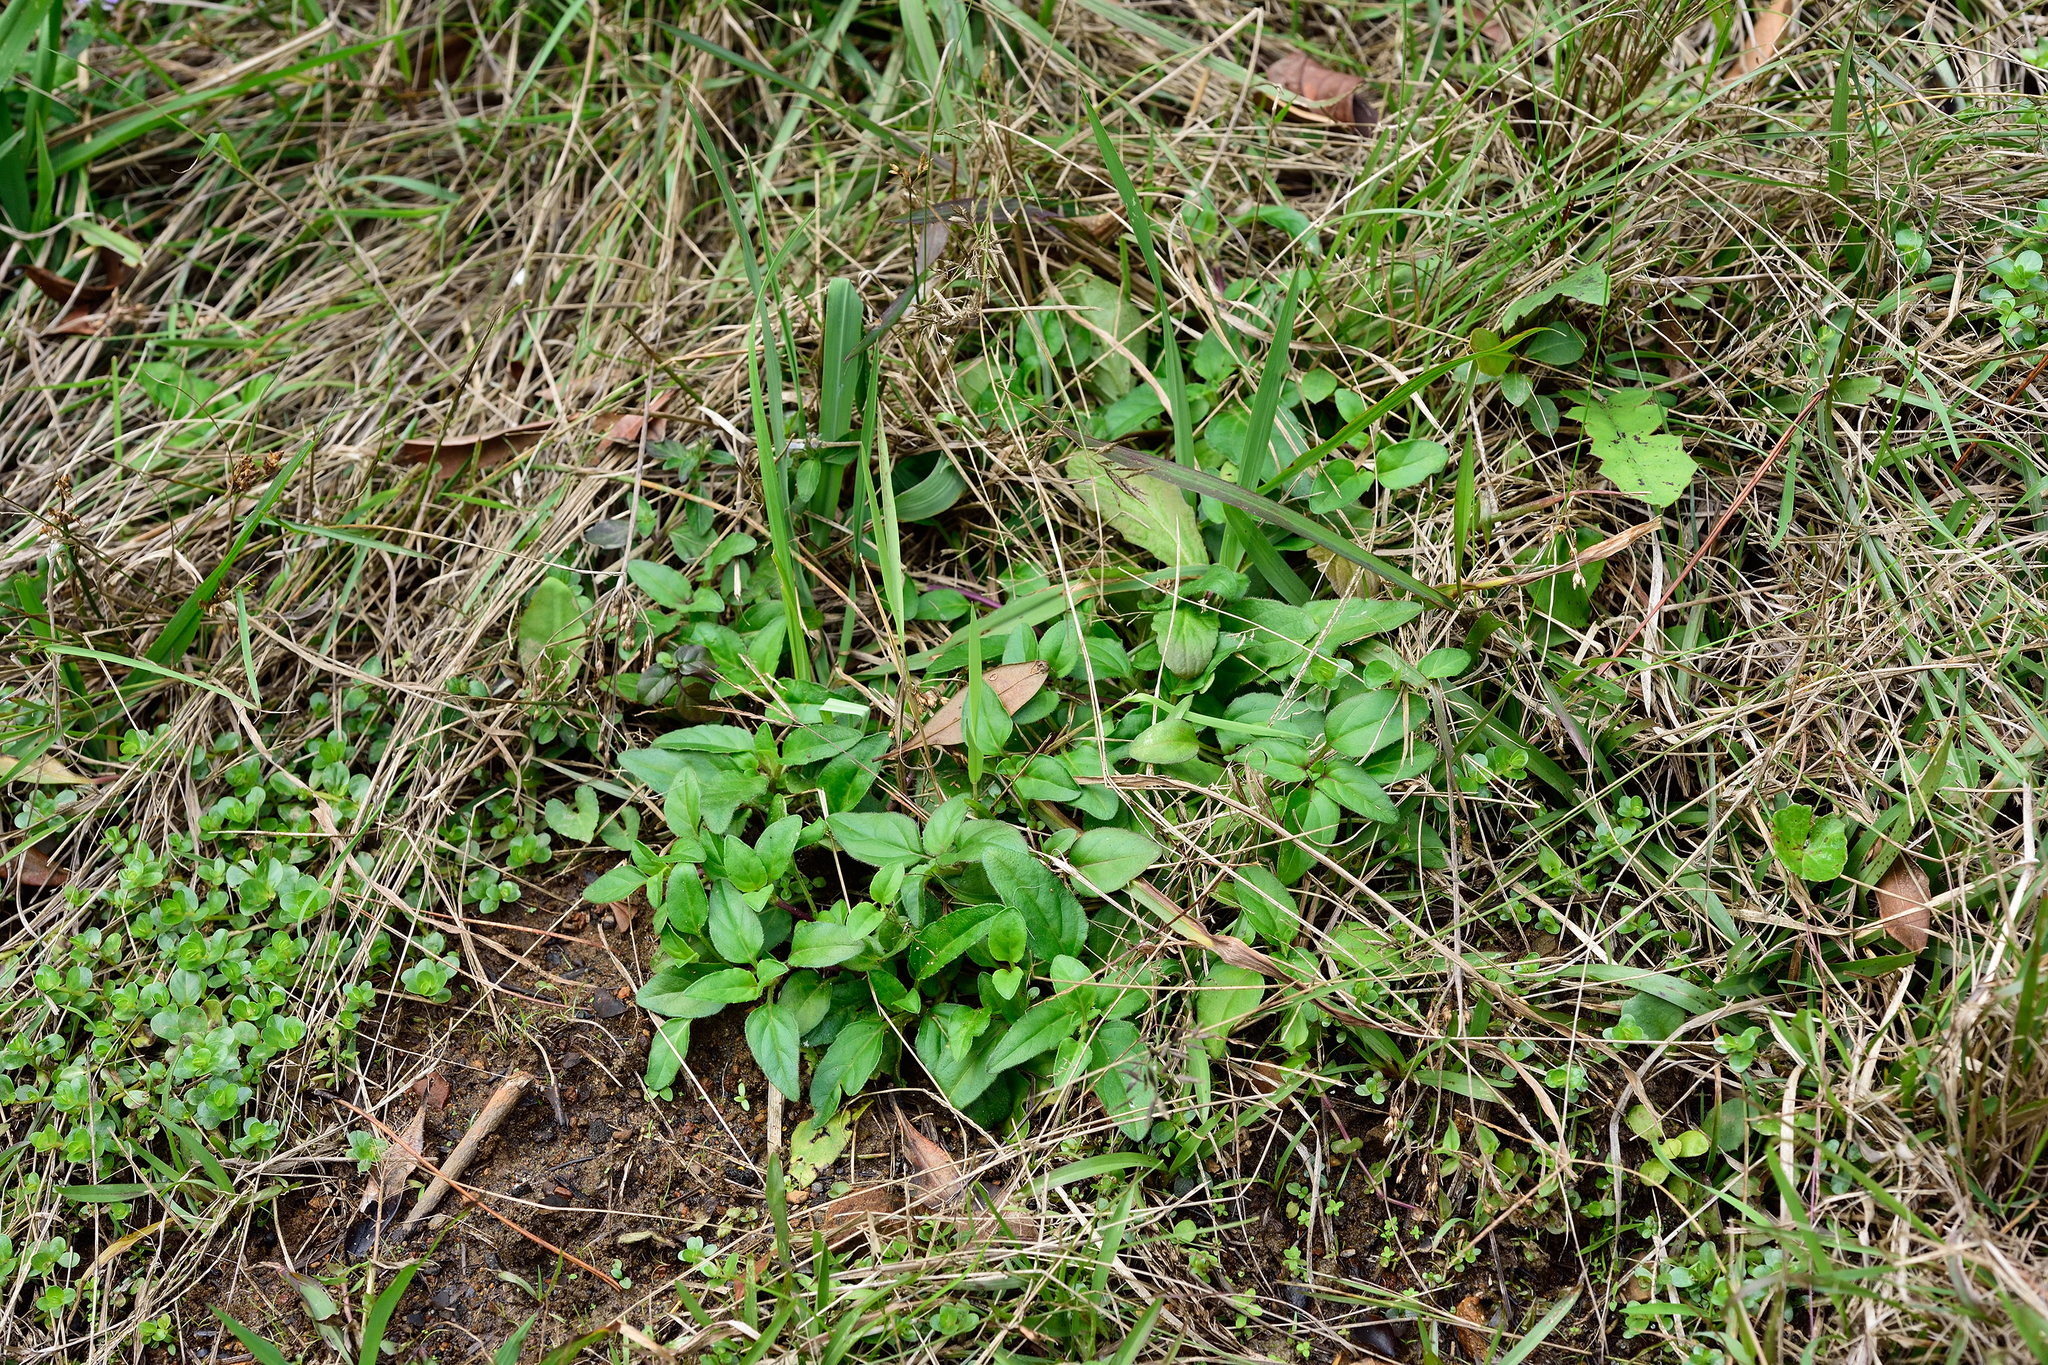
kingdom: Plantae
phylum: Tracheophyta
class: Magnoliopsida
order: Lamiales
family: Lamiaceae
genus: Prunella
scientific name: Prunella vulgaris
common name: Heal-all
